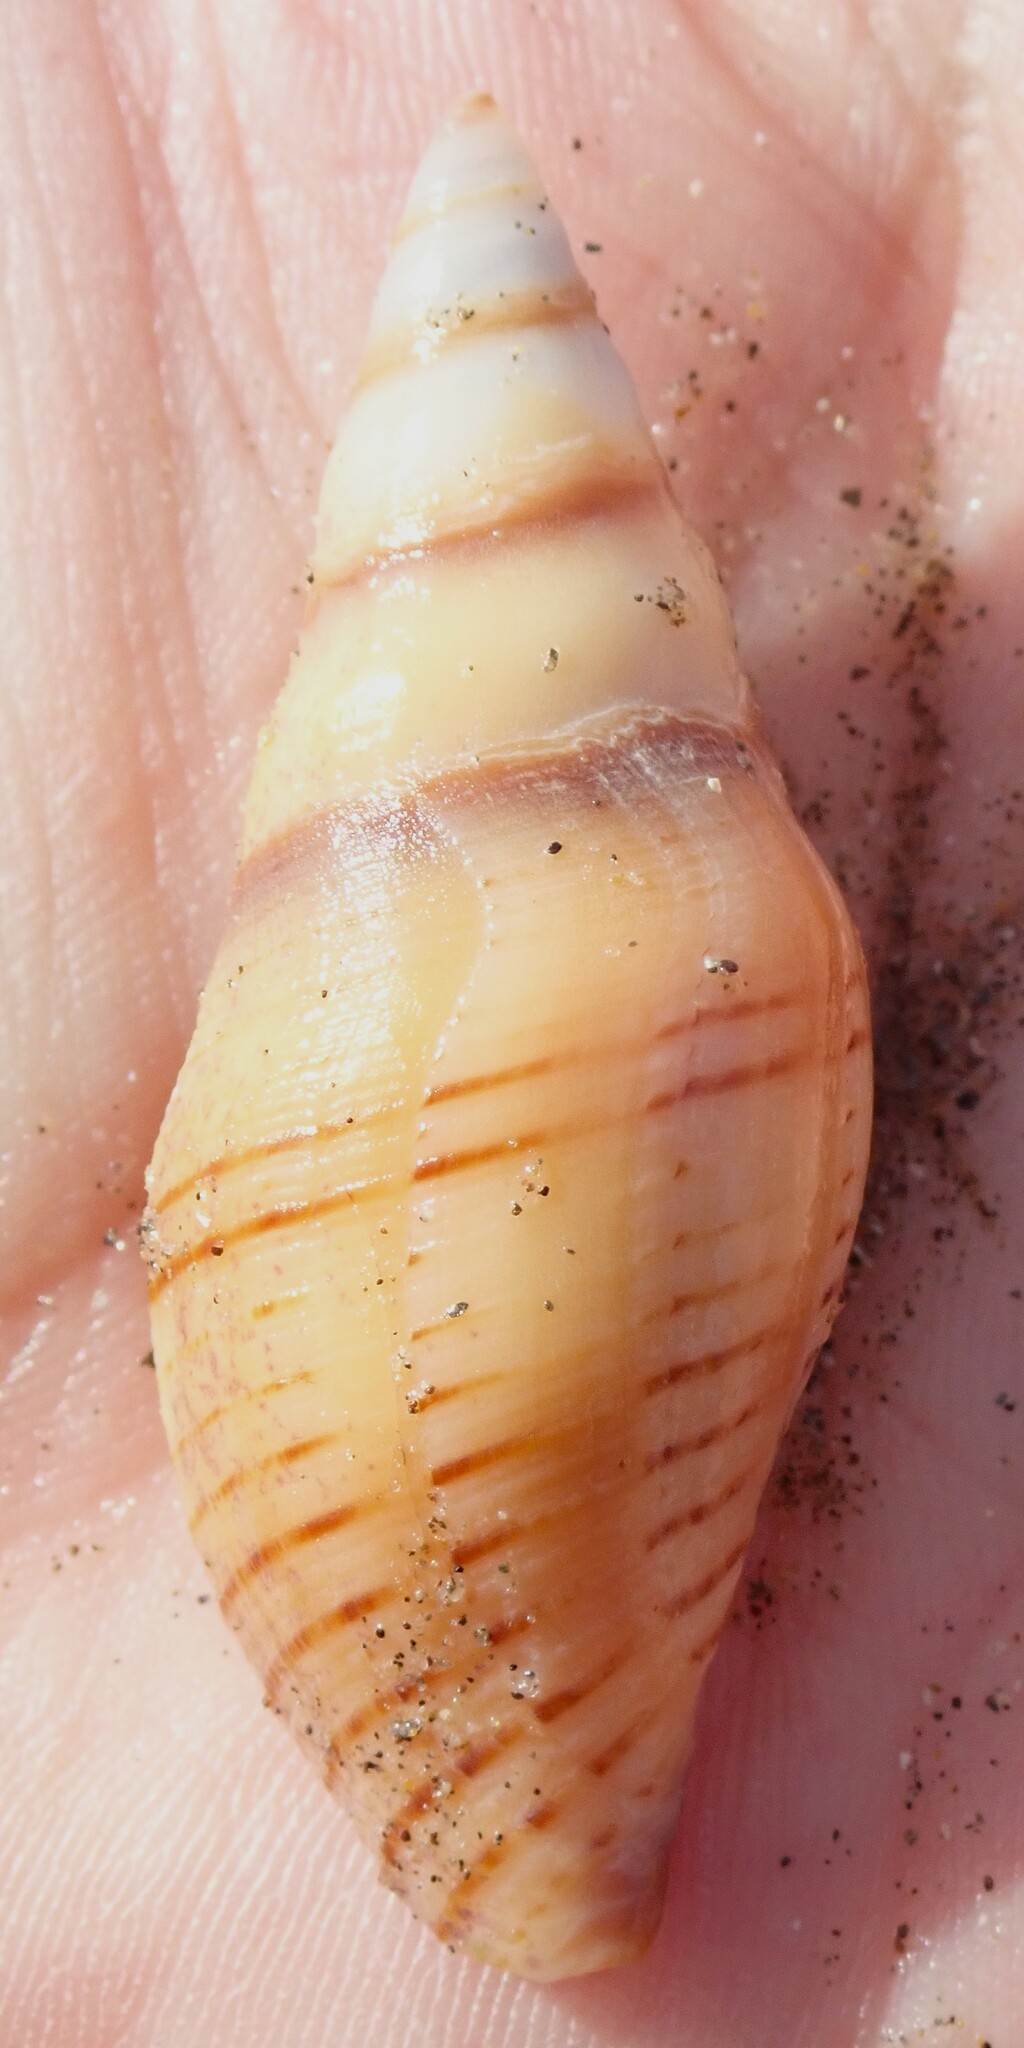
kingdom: Animalia
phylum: Mollusca
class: Gastropoda
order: Neogastropoda
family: Pseudomelatomidae
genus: Megasurcula
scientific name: Megasurcula carpenteriana
